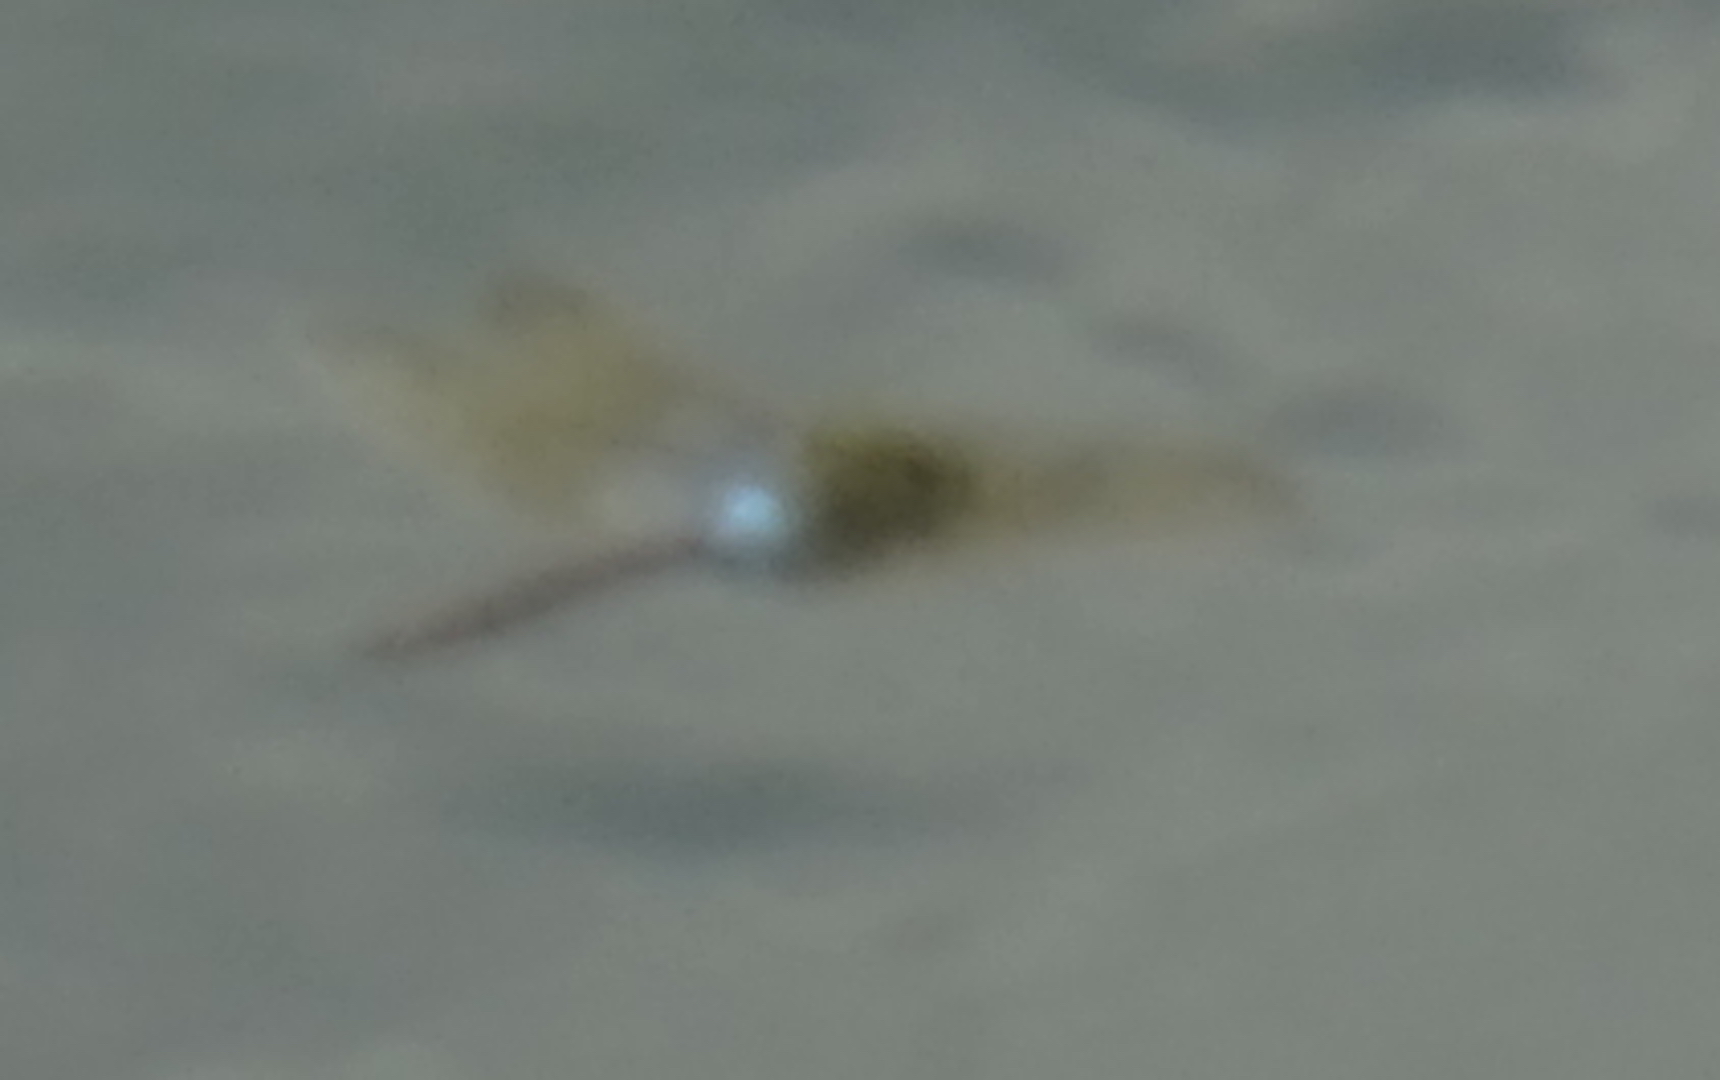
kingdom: Animalia
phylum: Arthropoda
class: Insecta
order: Odonata
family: Aeshnidae
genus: Anax
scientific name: Anax julius
